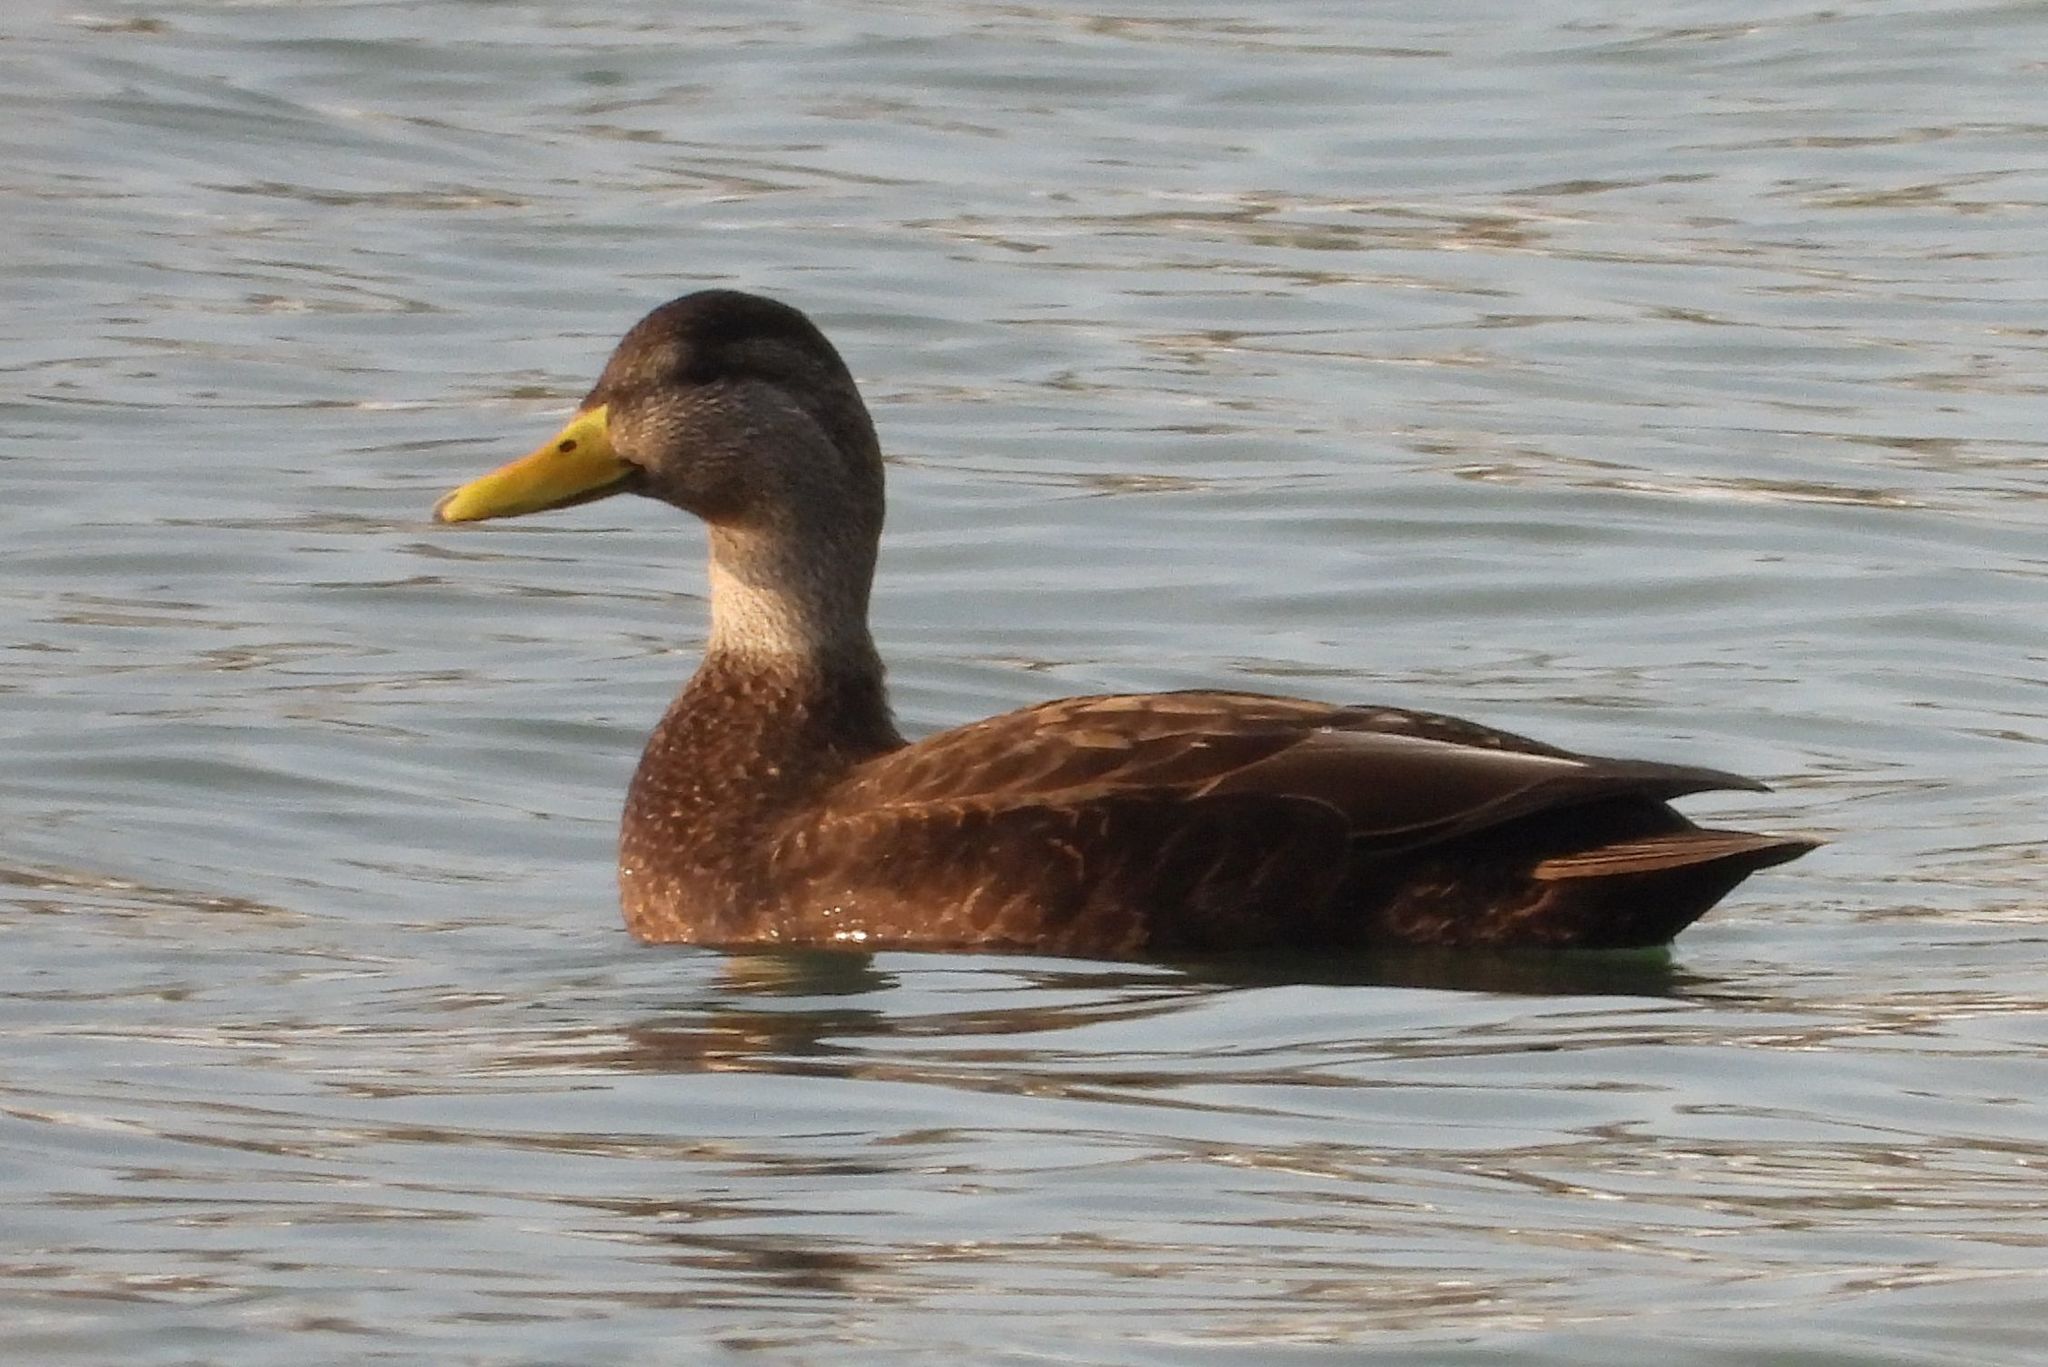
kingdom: Animalia
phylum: Chordata
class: Aves
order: Anseriformes
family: Anatidae
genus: Anas
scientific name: Anas rubripes
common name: American black duck
